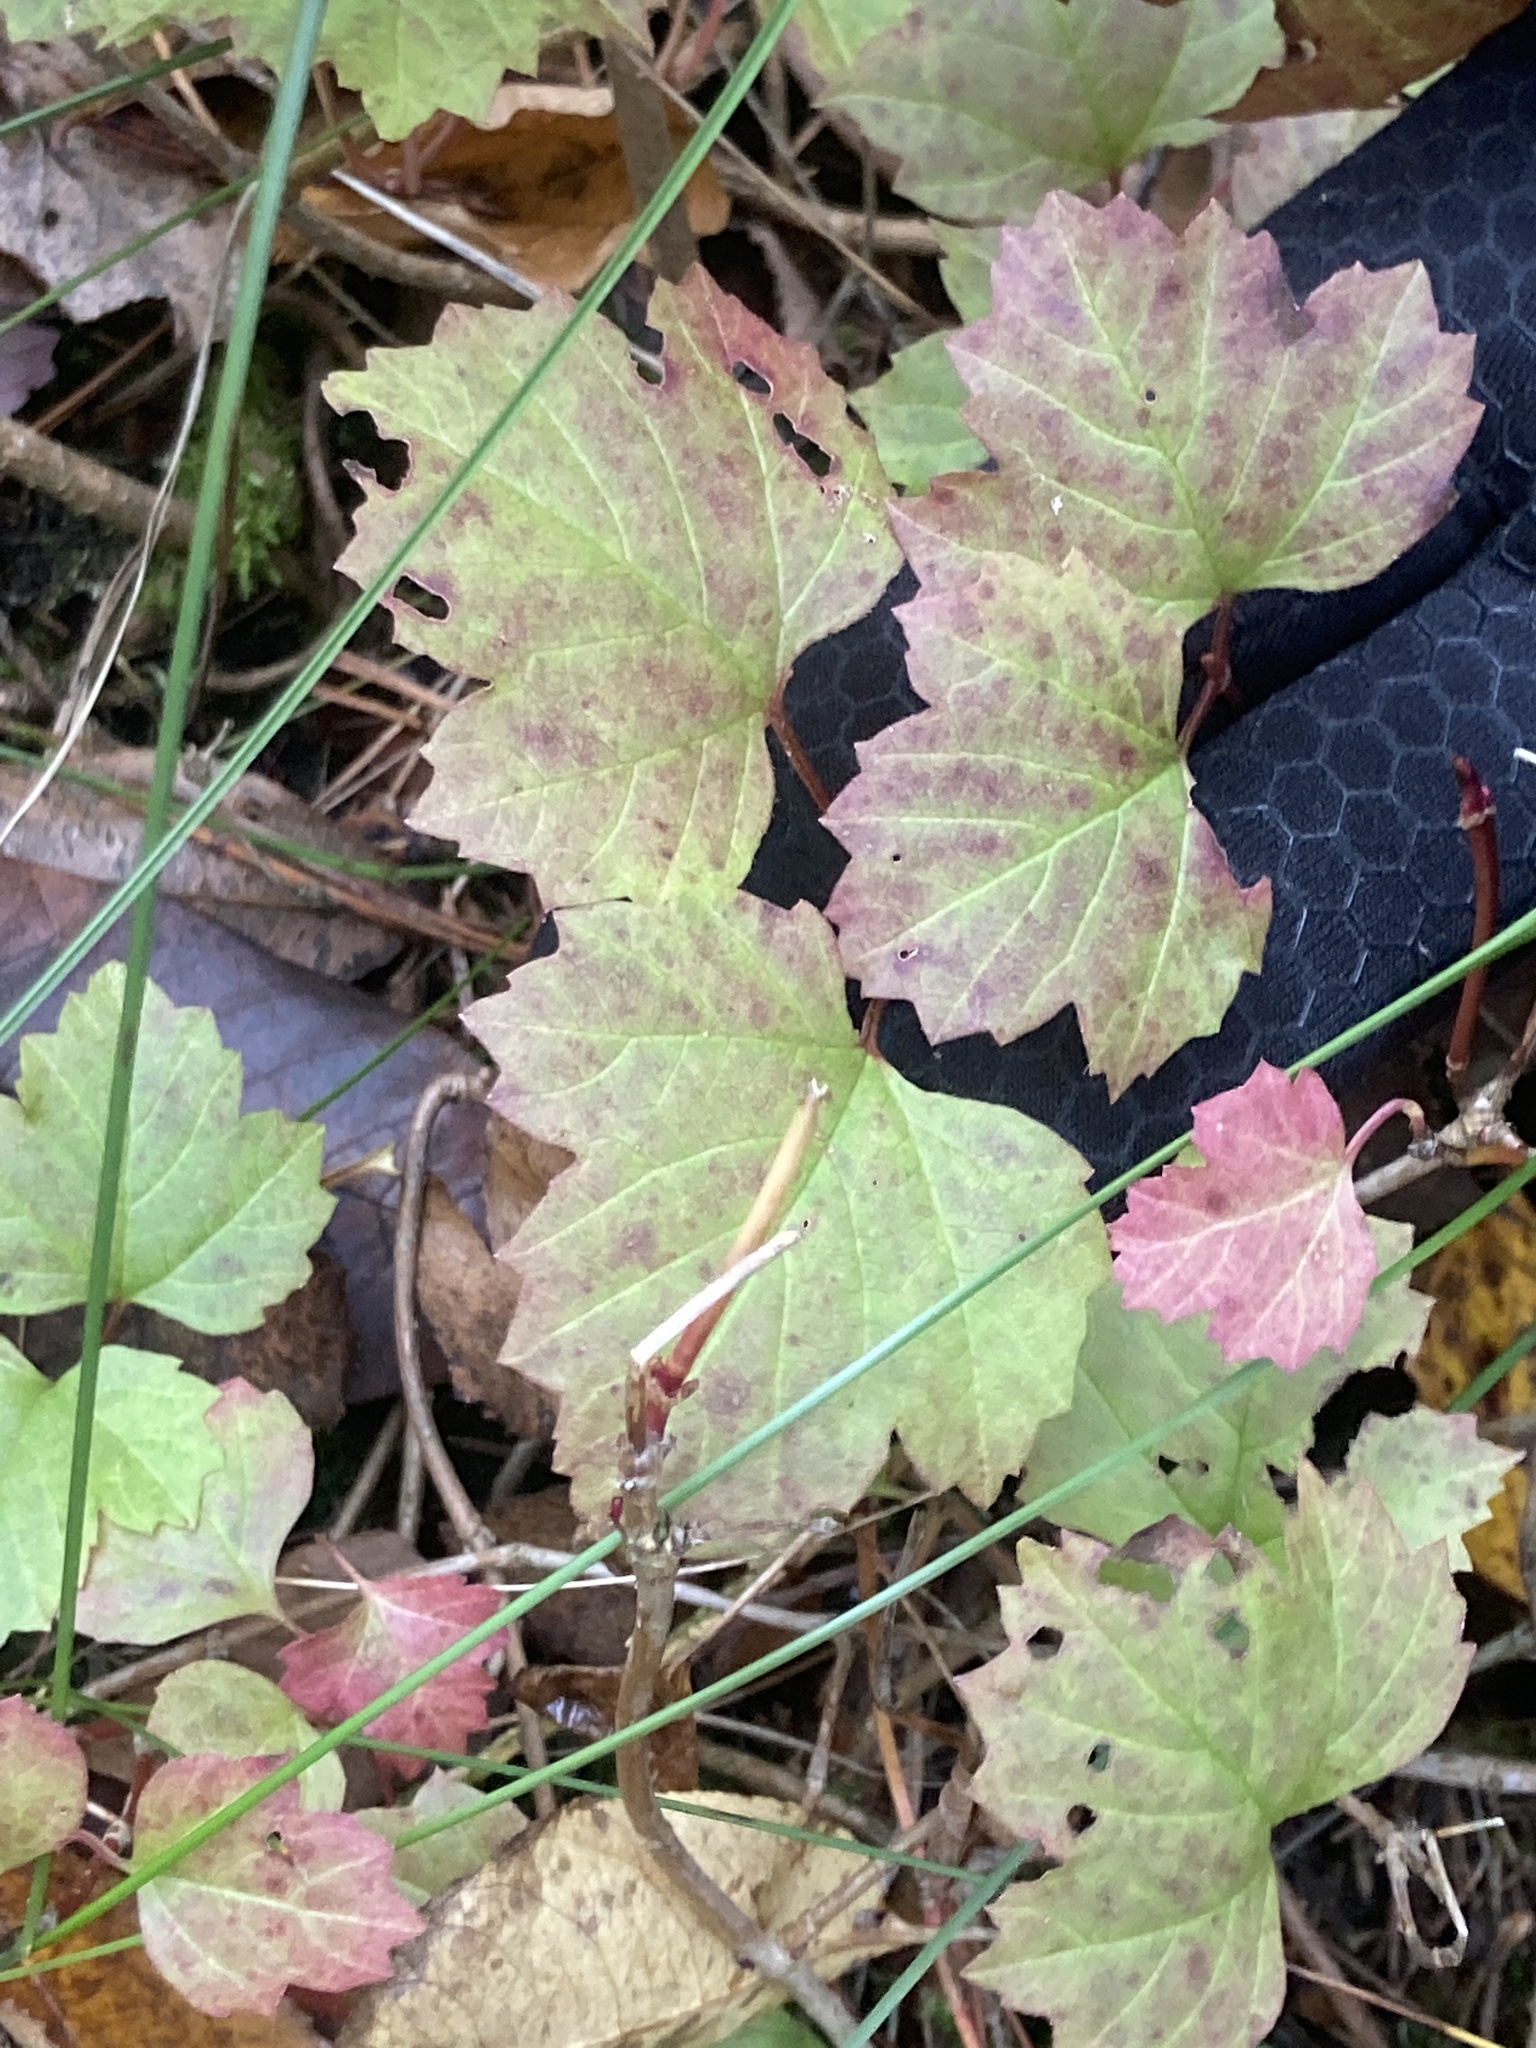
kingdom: Plantae
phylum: Tracheophyta
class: Magnoliopsida
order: Dipsacales
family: Viburnaceae
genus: Viburnum
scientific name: Viburnum acerifolium
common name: Dockmackie
